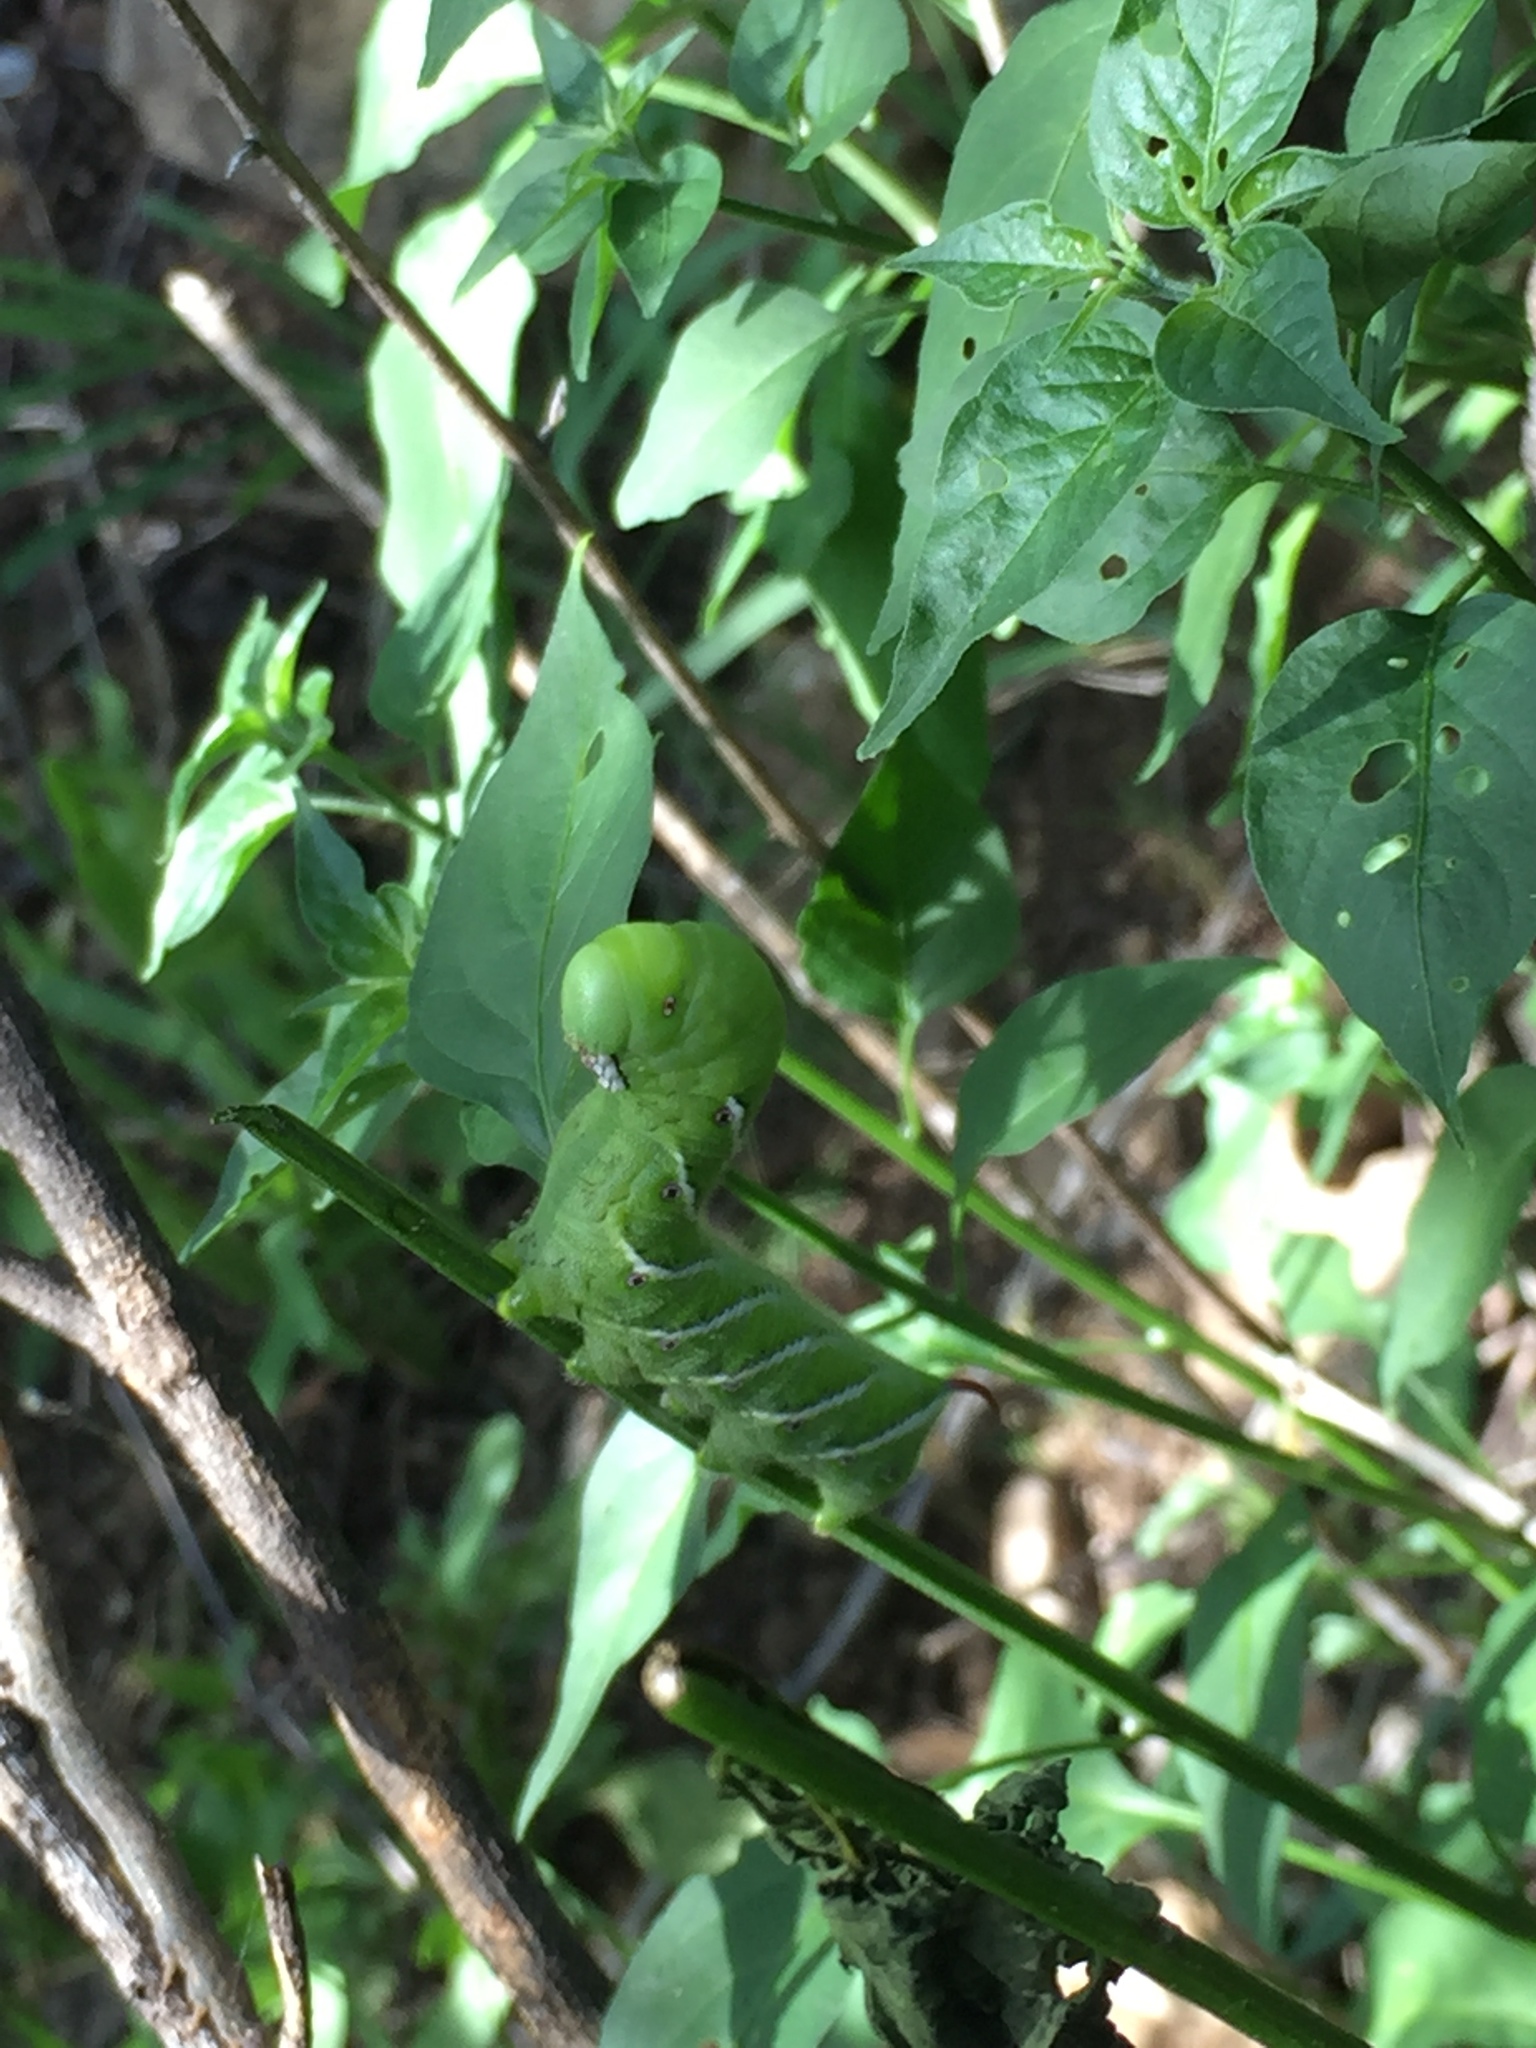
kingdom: Animalia
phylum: Arthropoda
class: Insecta
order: Lepidoptera
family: Sphingidae
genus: Manduca
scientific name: Manduca sexta
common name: Carolina sphinx
